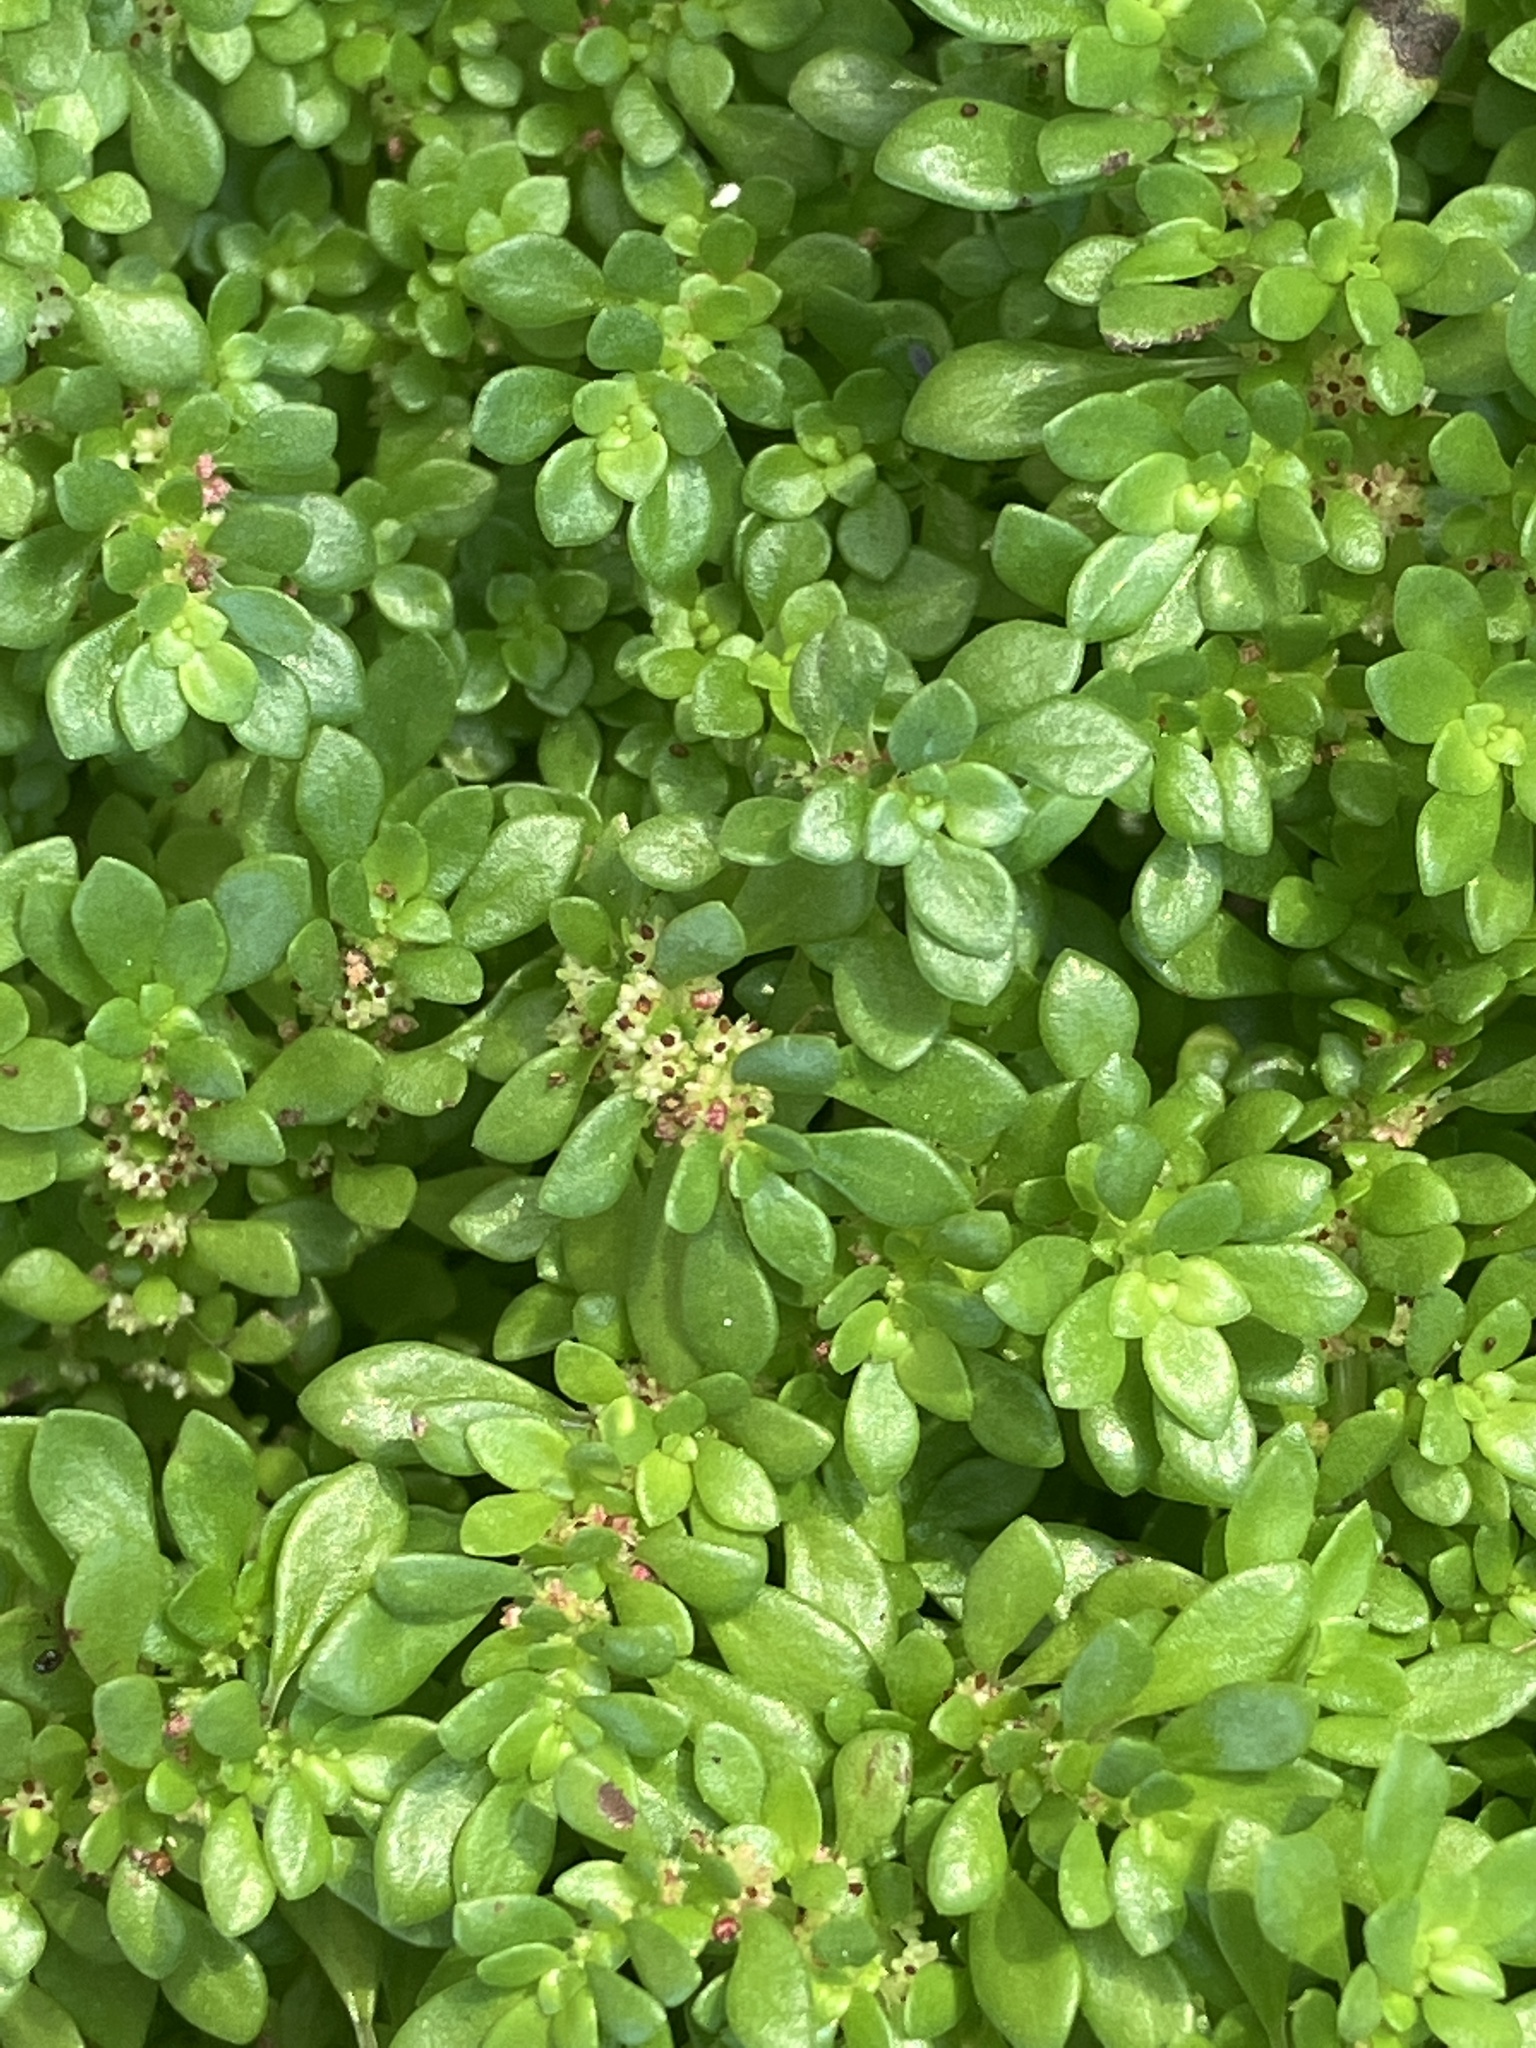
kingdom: Plantae
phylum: Tracheophyta
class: Magnoliopsida
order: Rosales
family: Urticaceae
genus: Pilea
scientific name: Pilea microphylla
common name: Artillery-plant
